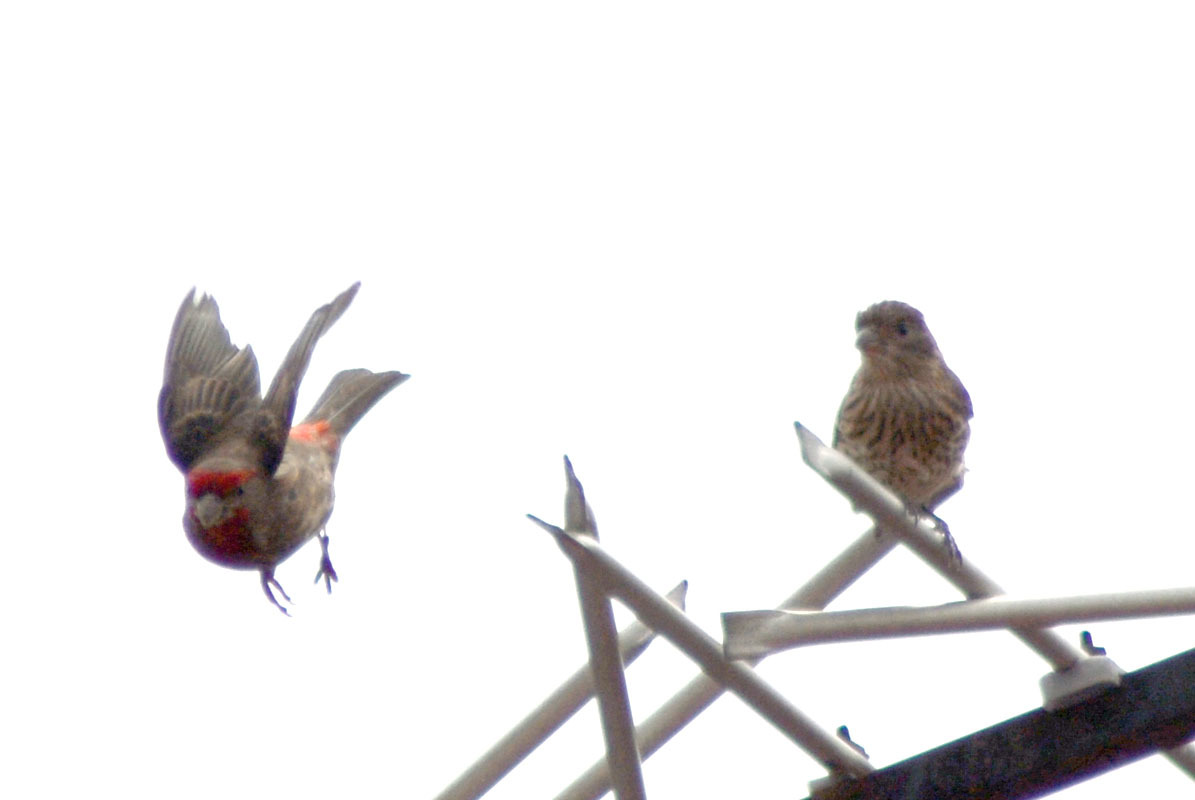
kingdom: Animalia
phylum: Chordata
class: Aves
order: Passeriformes
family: Fringillidae
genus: Haemorhous
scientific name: Haemorhous mexicanus
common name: House finch
